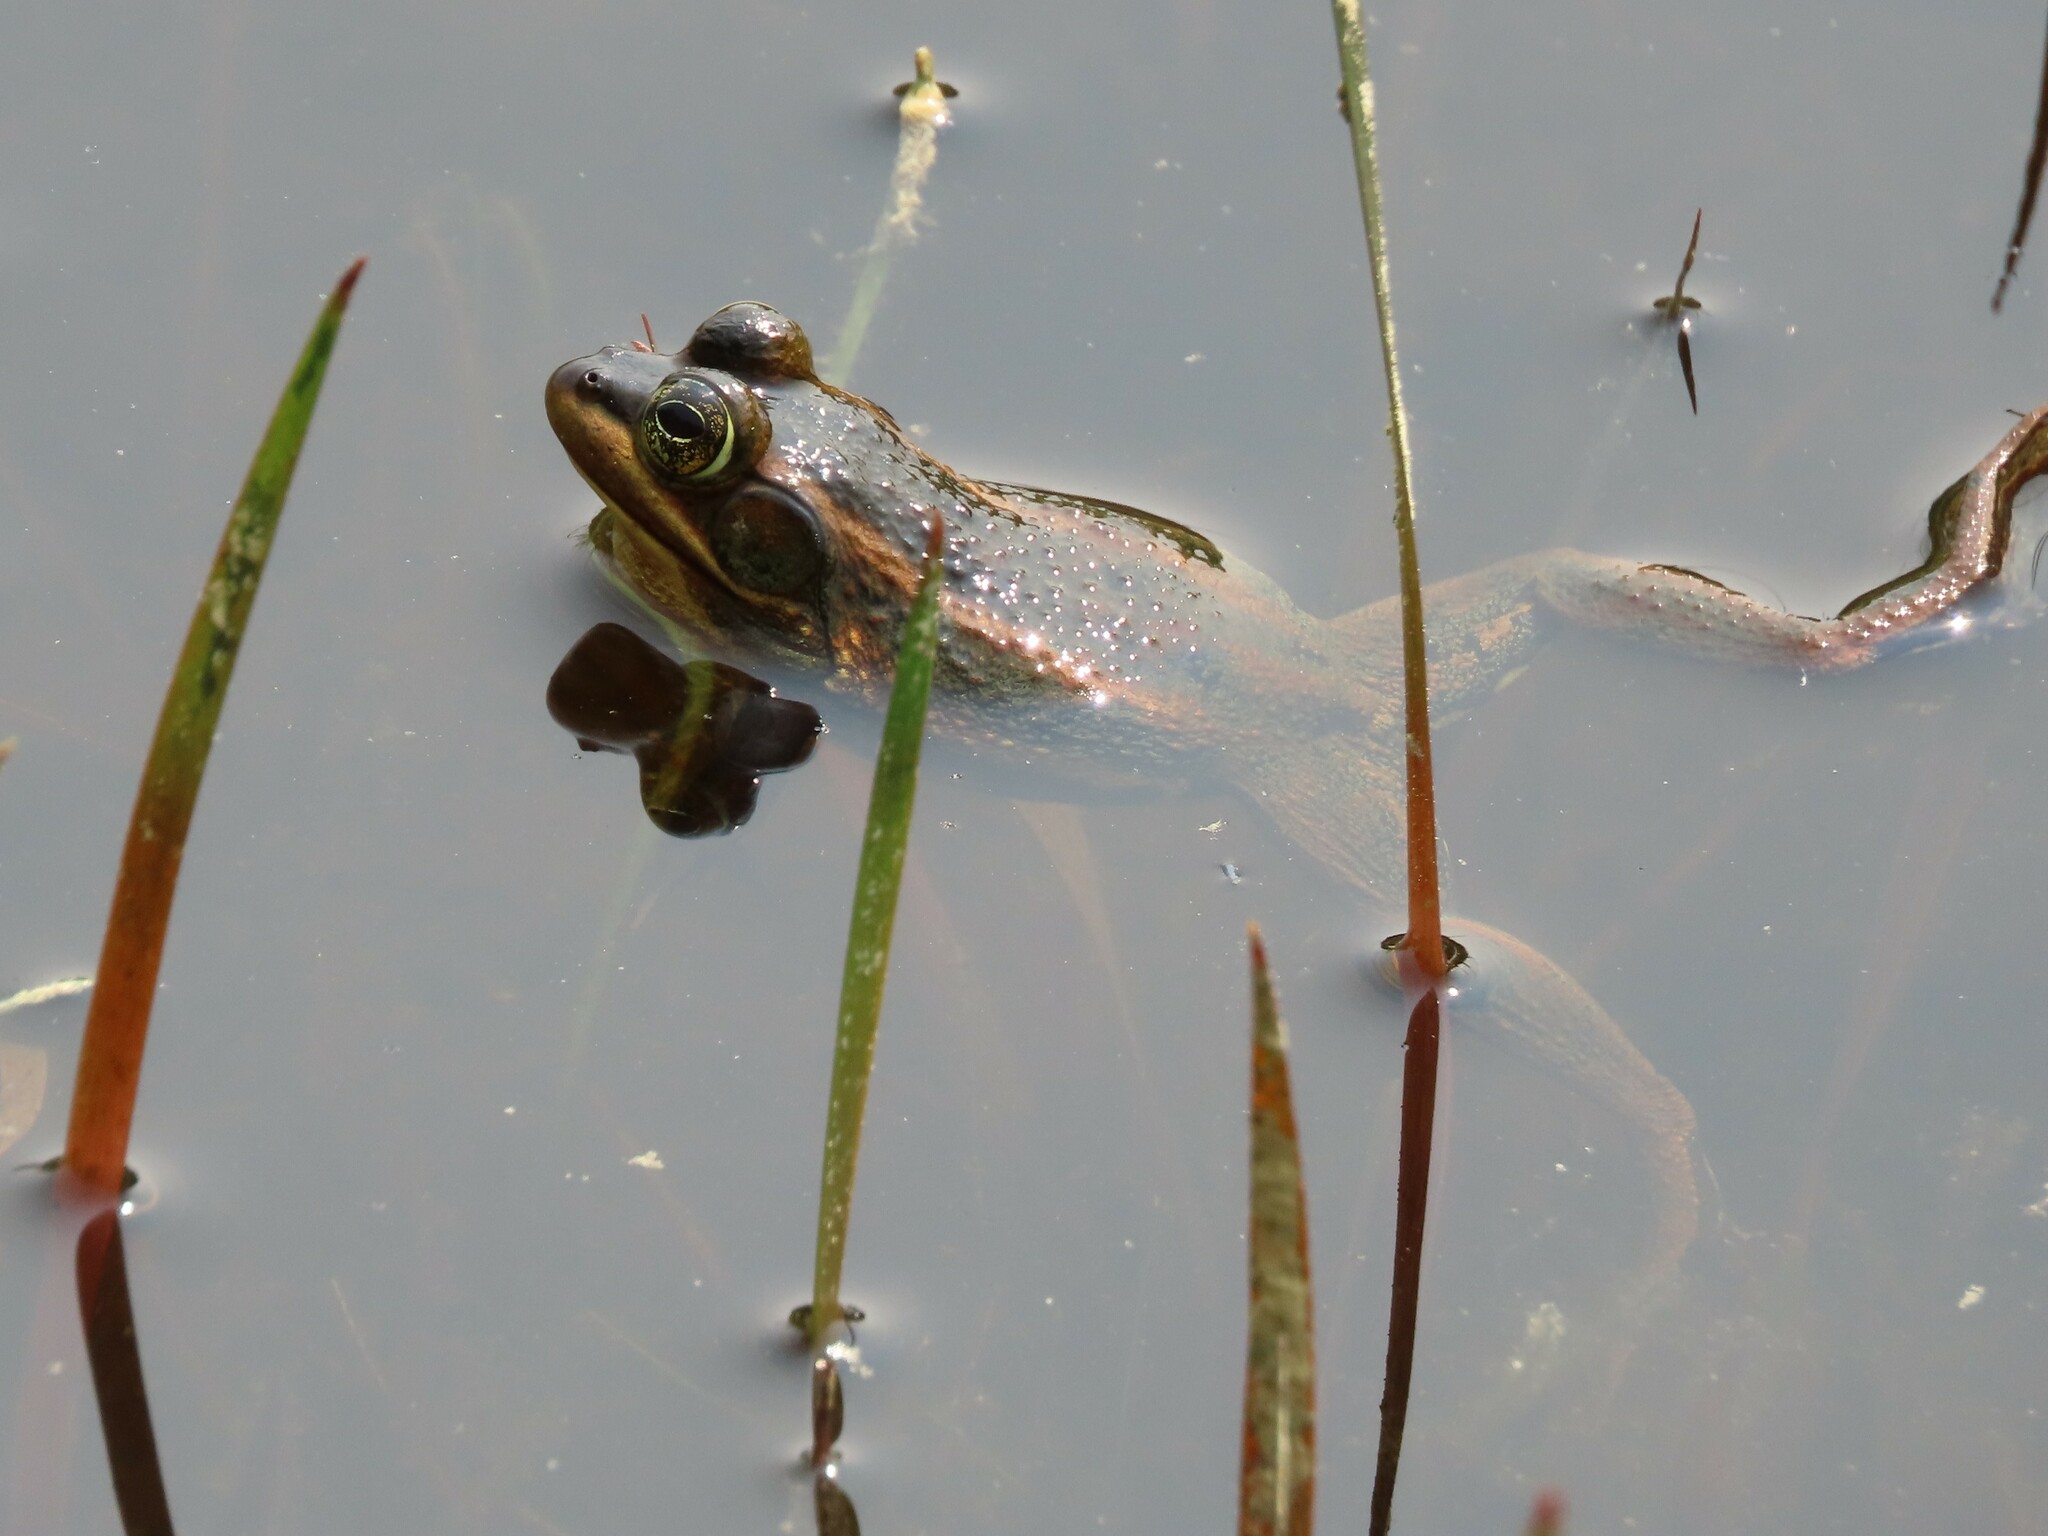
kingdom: Animalia
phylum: Chordata
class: Amphibia
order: Anura
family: Ranidae
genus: Lithobates
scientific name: Lithobates virgatipes
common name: Carpenter frog
